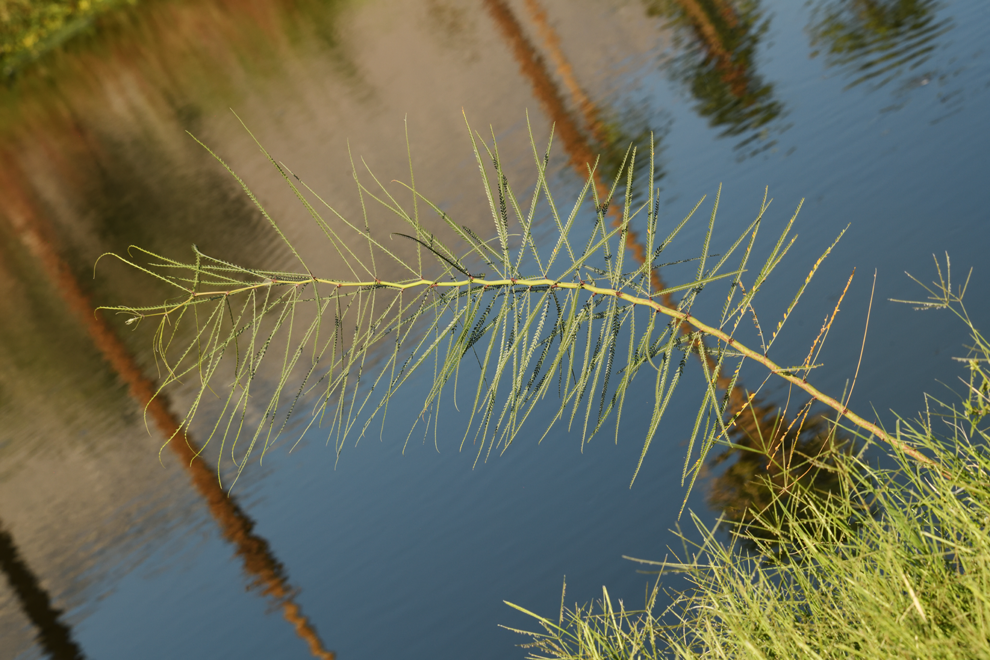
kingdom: Plantae
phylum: Tracheophyta
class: Magnoliopsida
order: Fabales
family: Fabaceae
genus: Parkinsonia
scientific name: Parkinsonia aculeata
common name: Jerusalem thorn
